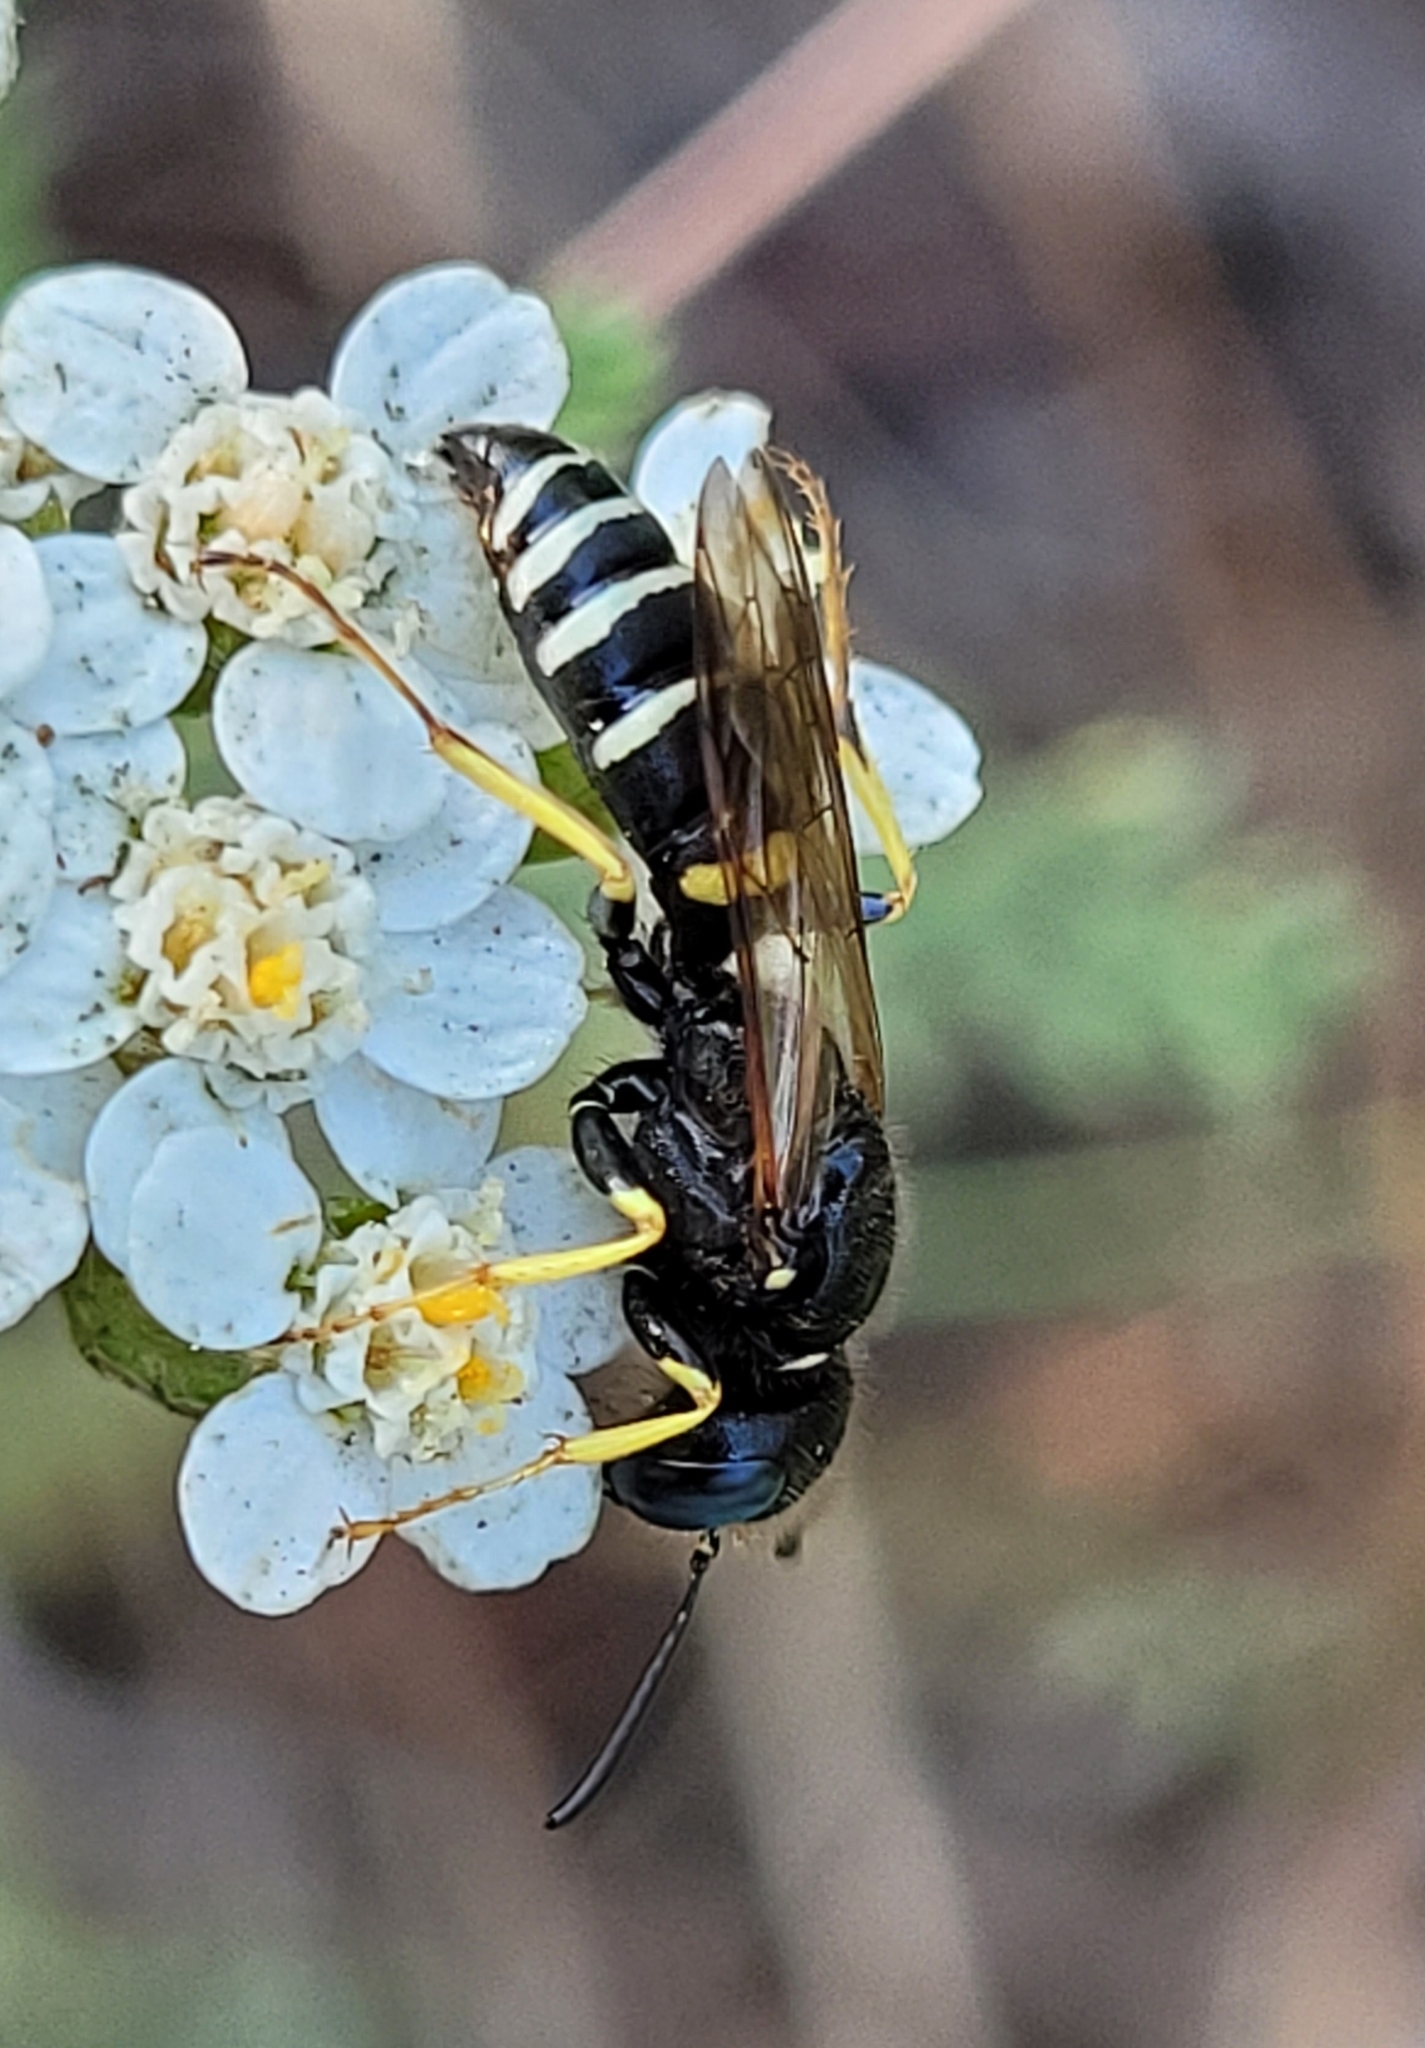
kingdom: Animalia
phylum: Arthropoda
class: Insecta
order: Hymenoptera
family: Crabronidae
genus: Philanthus
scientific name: Philanthus solivagus
